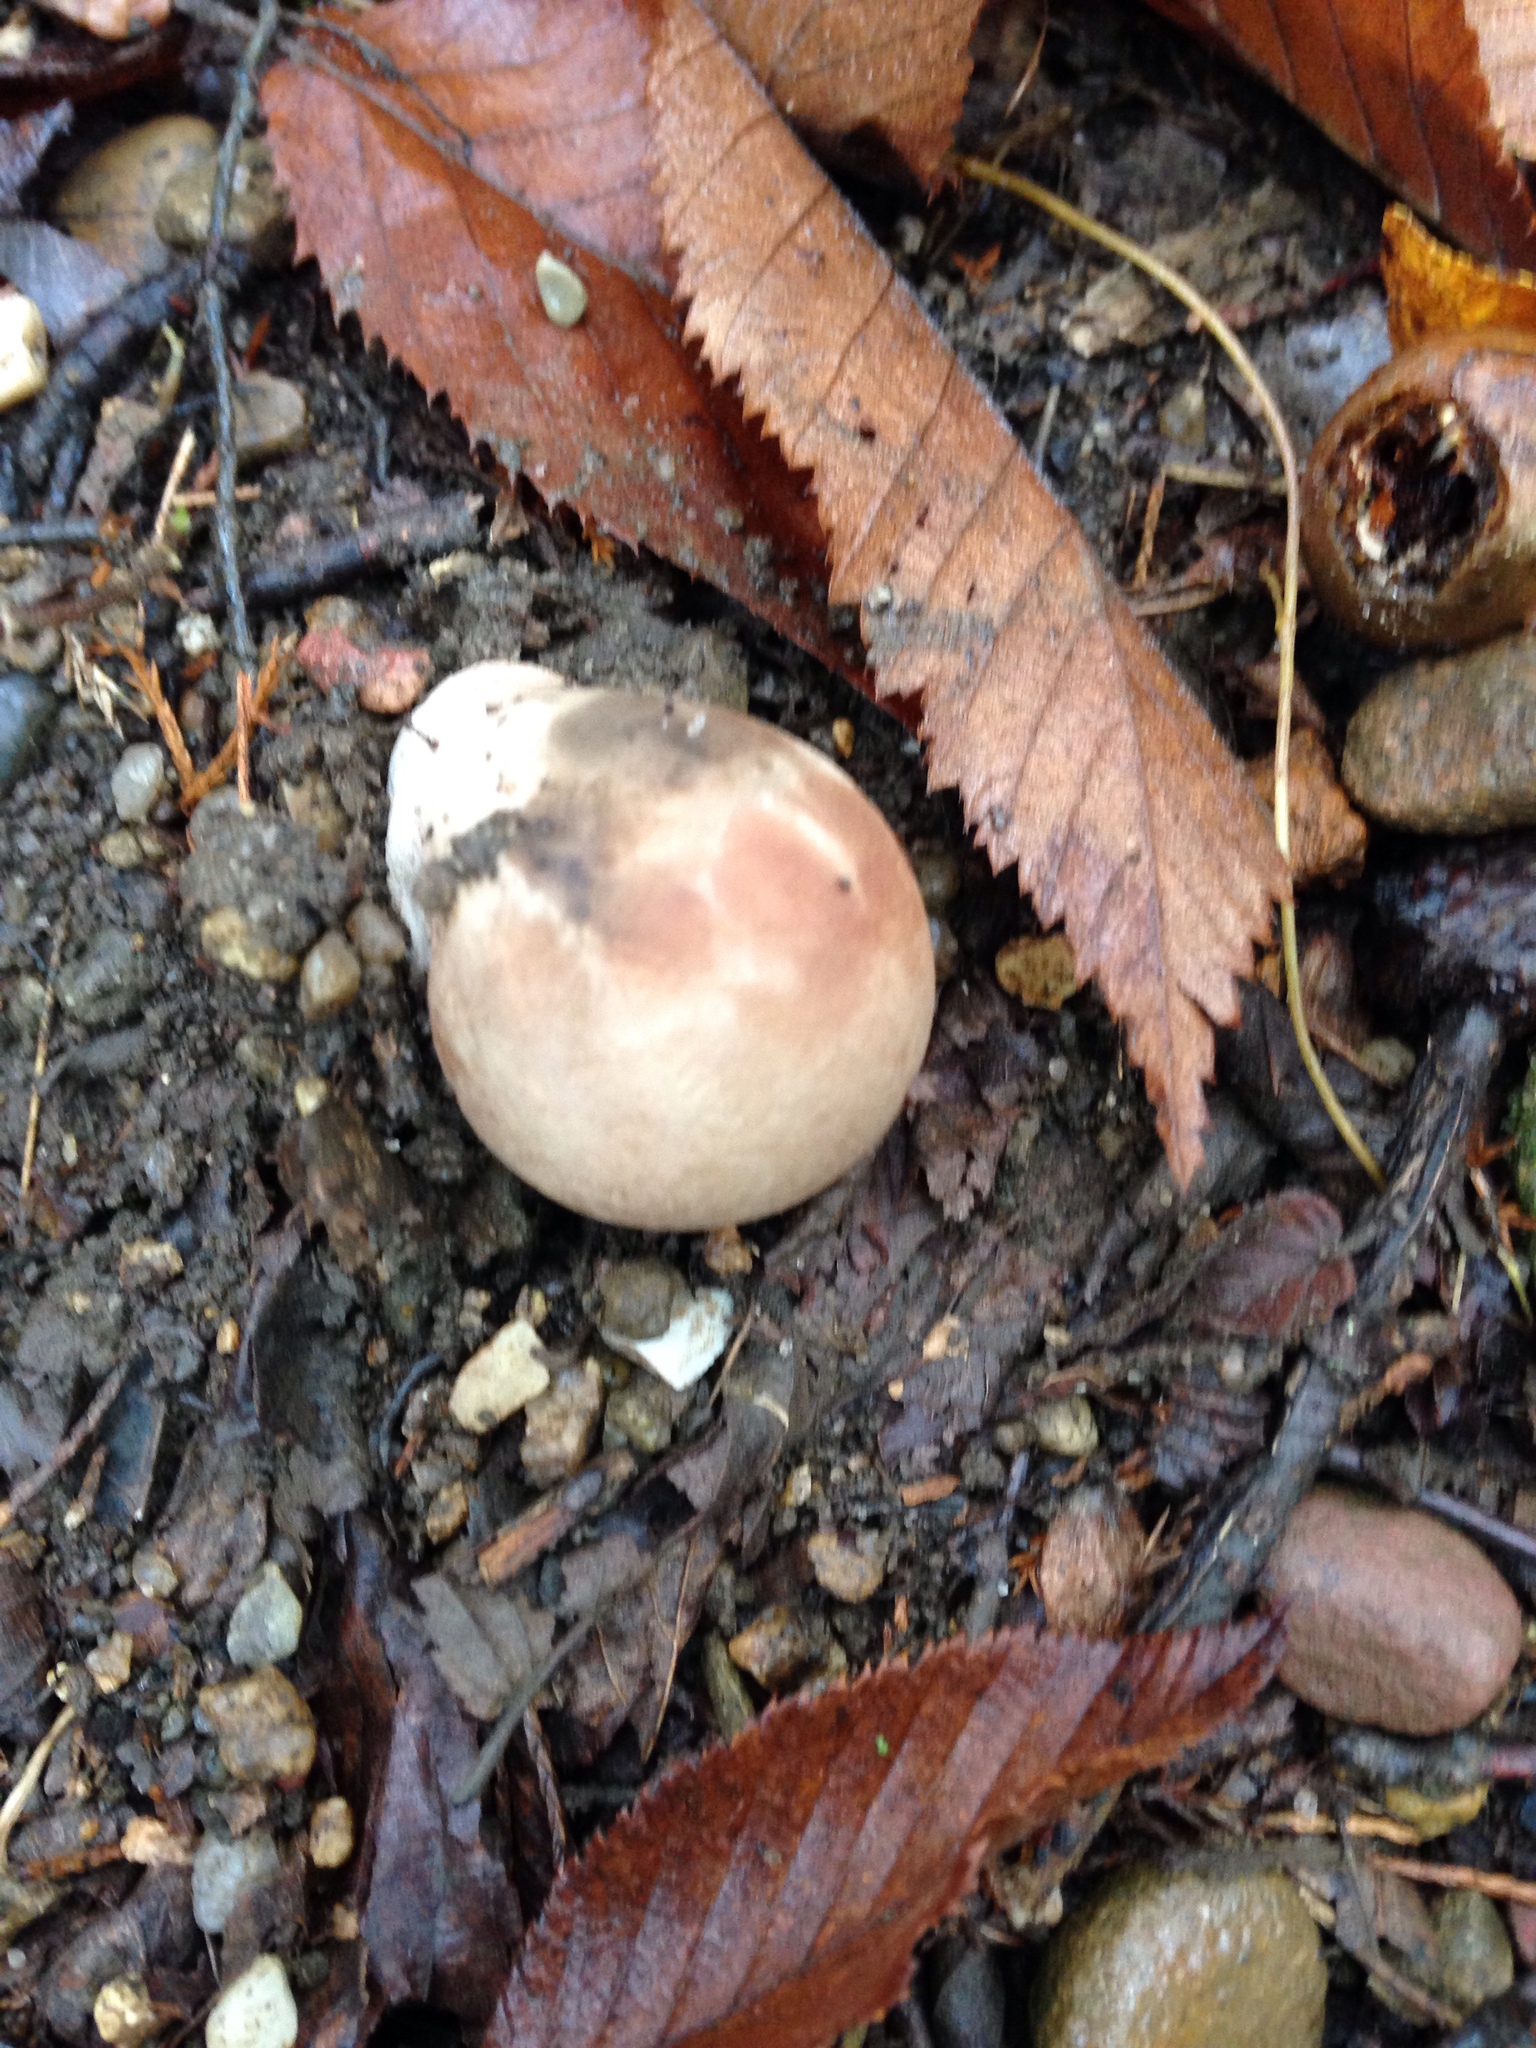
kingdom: Fungi
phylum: Basidiomycota
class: Agaricomycetes
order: Polyporales
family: Fomitopsidaceae
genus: Fomitopsis
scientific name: Fomitopsis betulina
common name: Birch polypore
